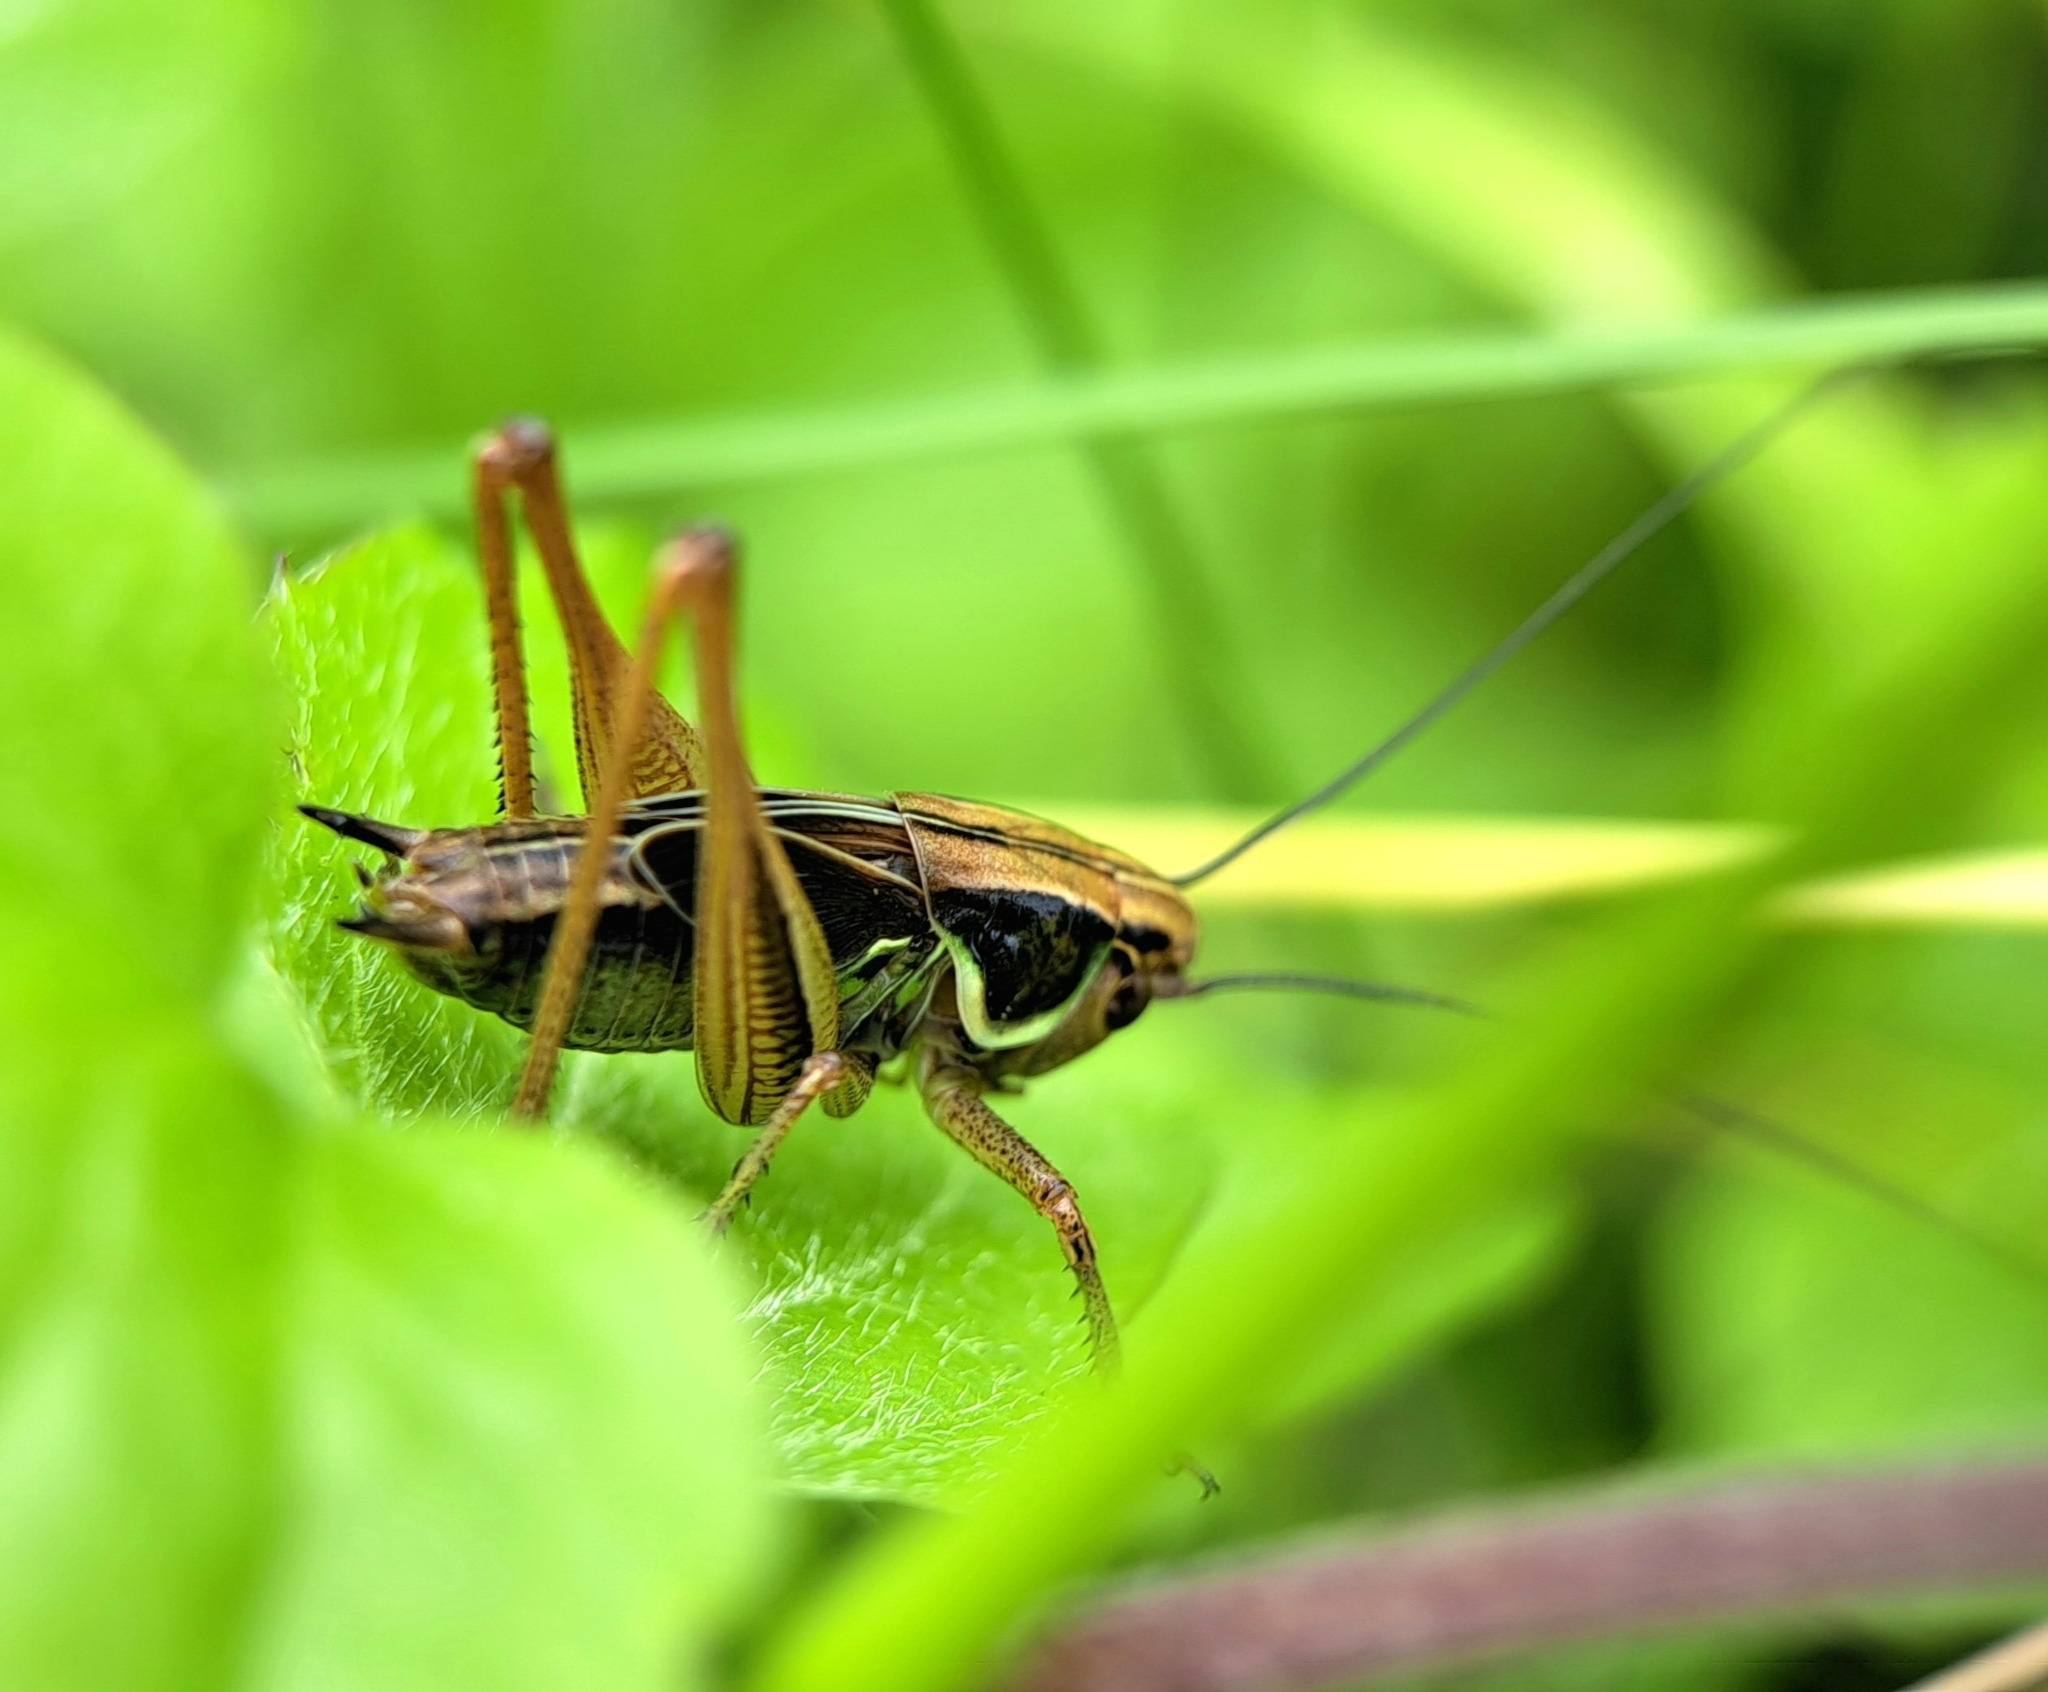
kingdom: Animalia
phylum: Arthropoda
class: Insecta
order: Orthoptera
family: Tettigoniidae
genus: Roeseliana
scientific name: Roeseliana roeselii
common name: Roesel's bush cricket
